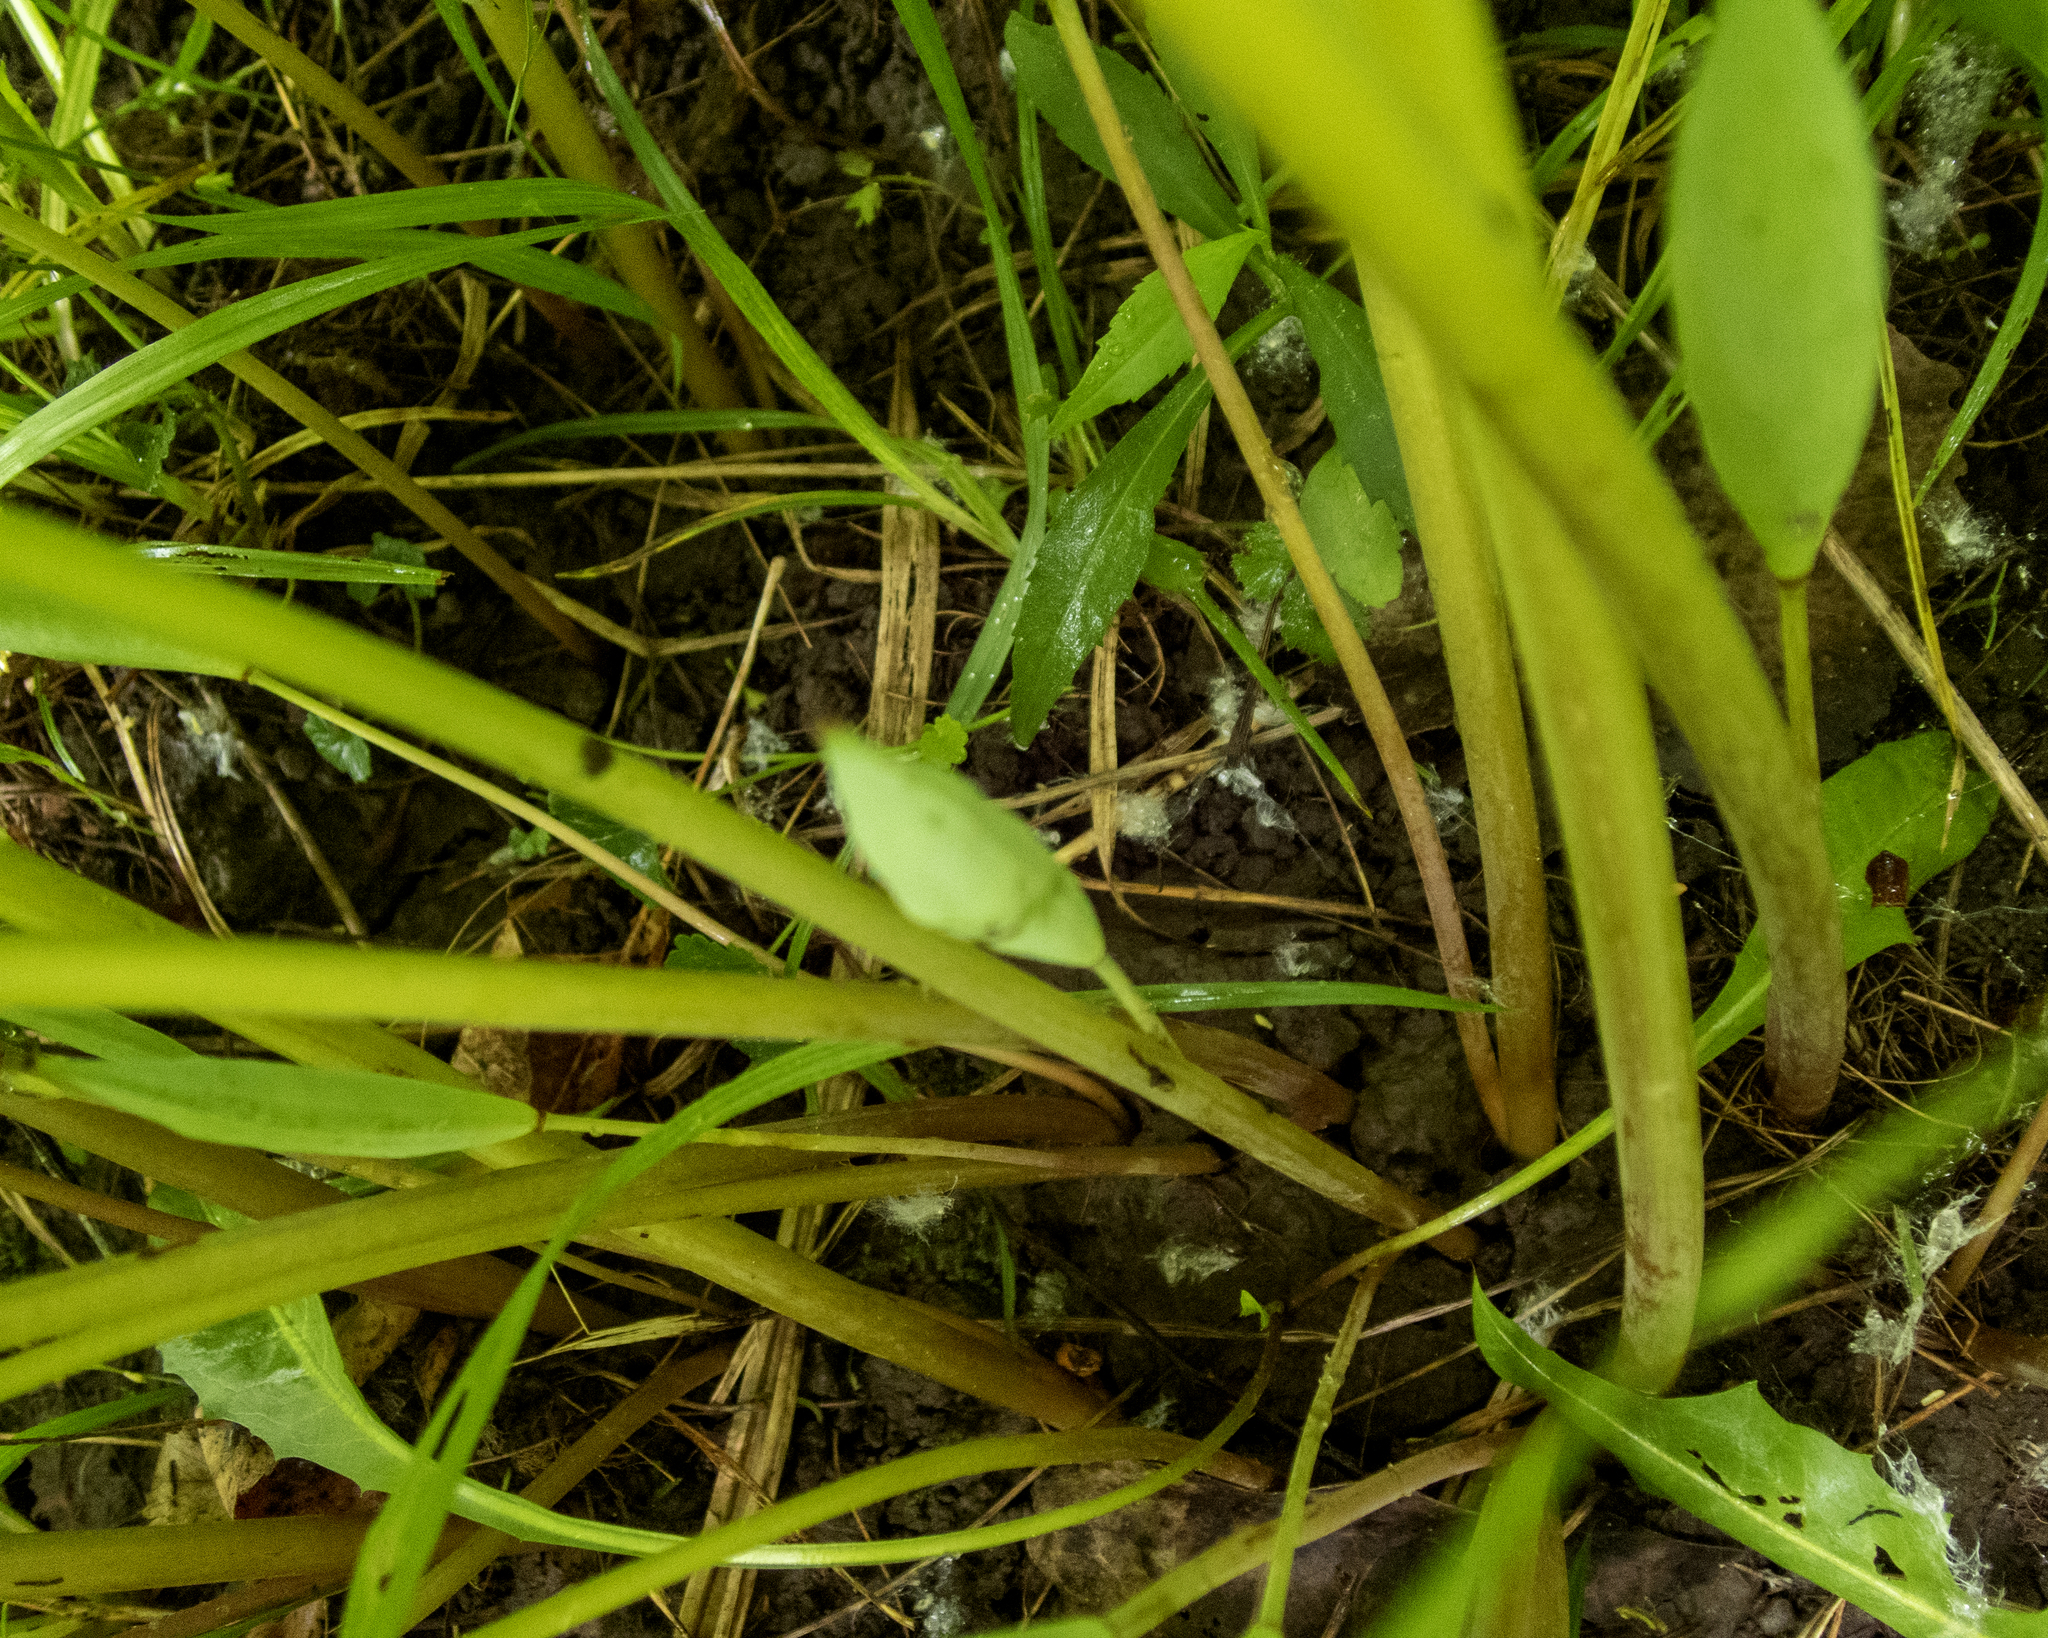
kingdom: Plantae
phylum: Tracheophyta
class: Magnoliopsida
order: Ranunculales
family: Papaveraceae
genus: Sanguinaria
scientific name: Sanguinaria canadensis
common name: Bloodroot
